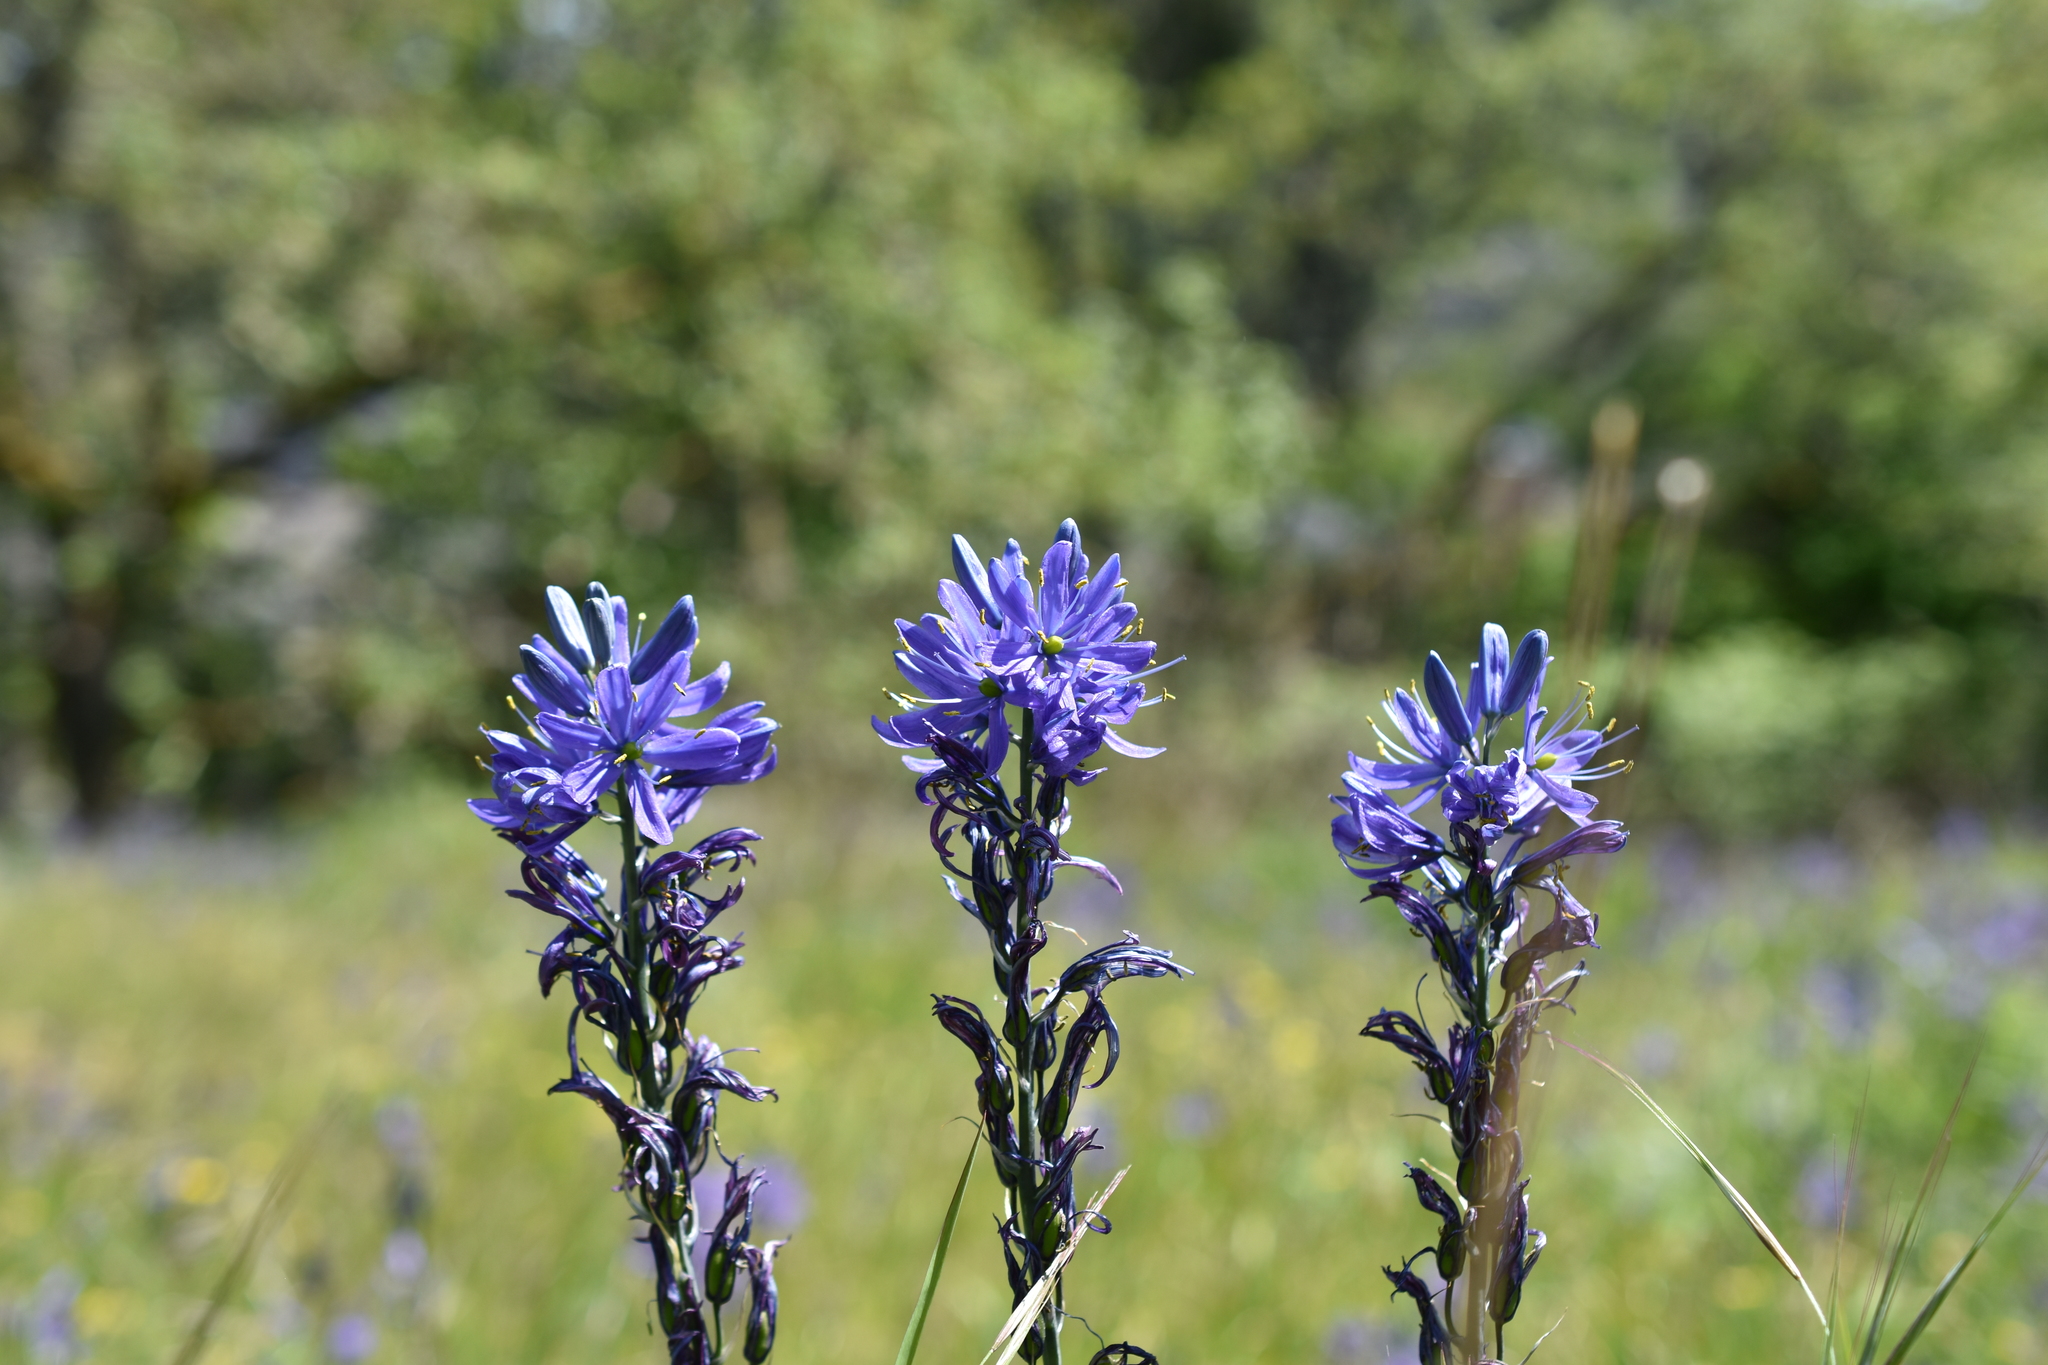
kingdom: Plantae
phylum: Tracheophyta
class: Liliopsida
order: Asparagales
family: Asparagaceae
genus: Camassia
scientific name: Camassia leichtlinii
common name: Leichtlin's camas
